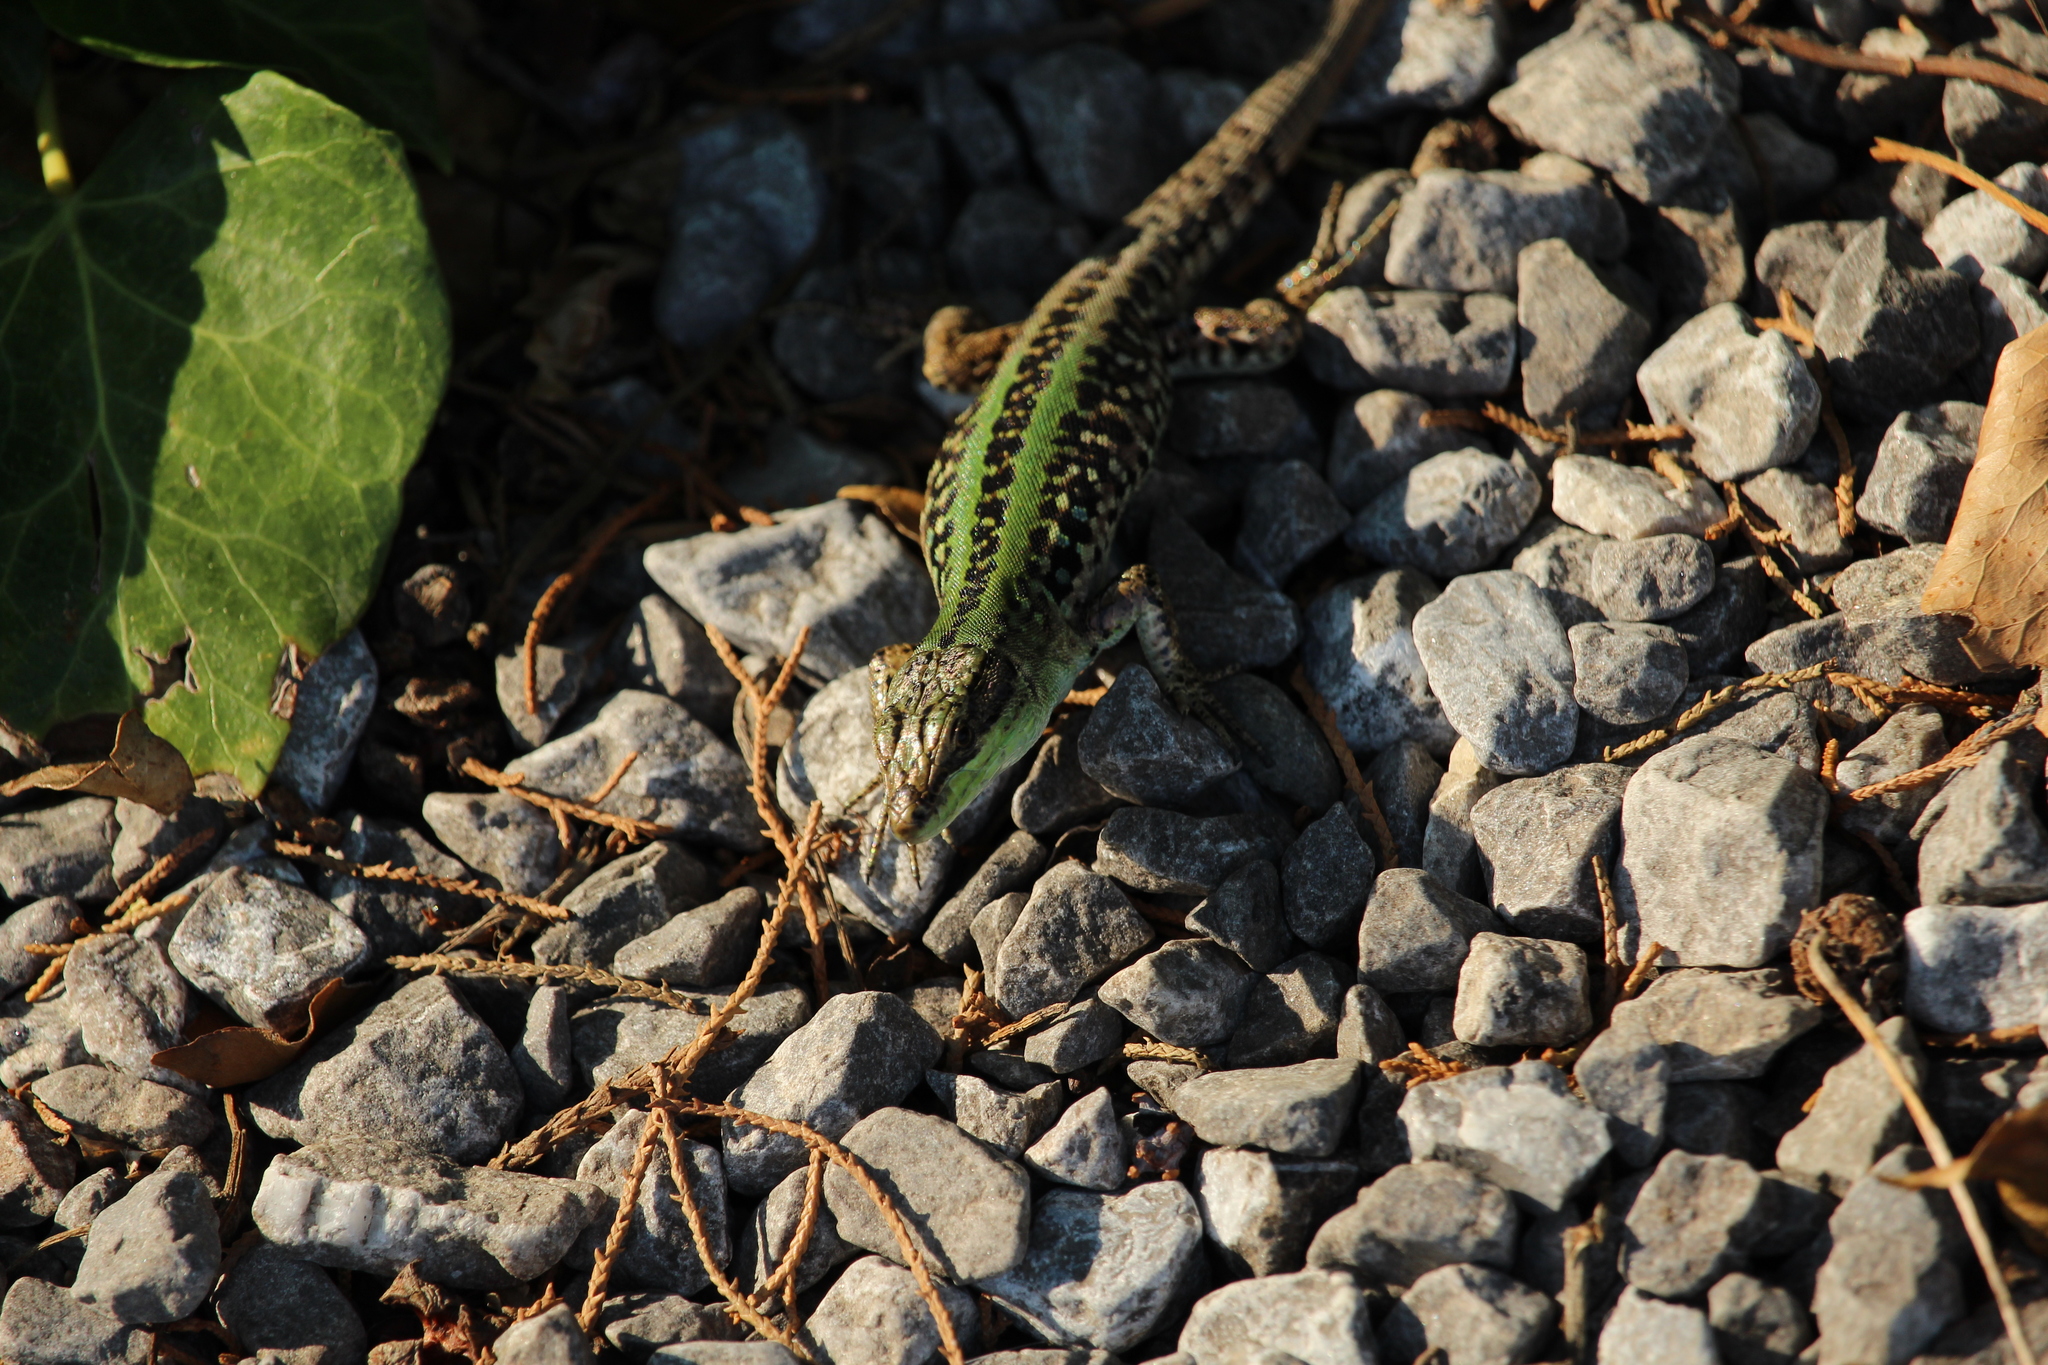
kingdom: Animalia
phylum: Chordata
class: Squamata
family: Lacertidae
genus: Podarcis
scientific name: Podarcis siculus
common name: Italian wall lizard
